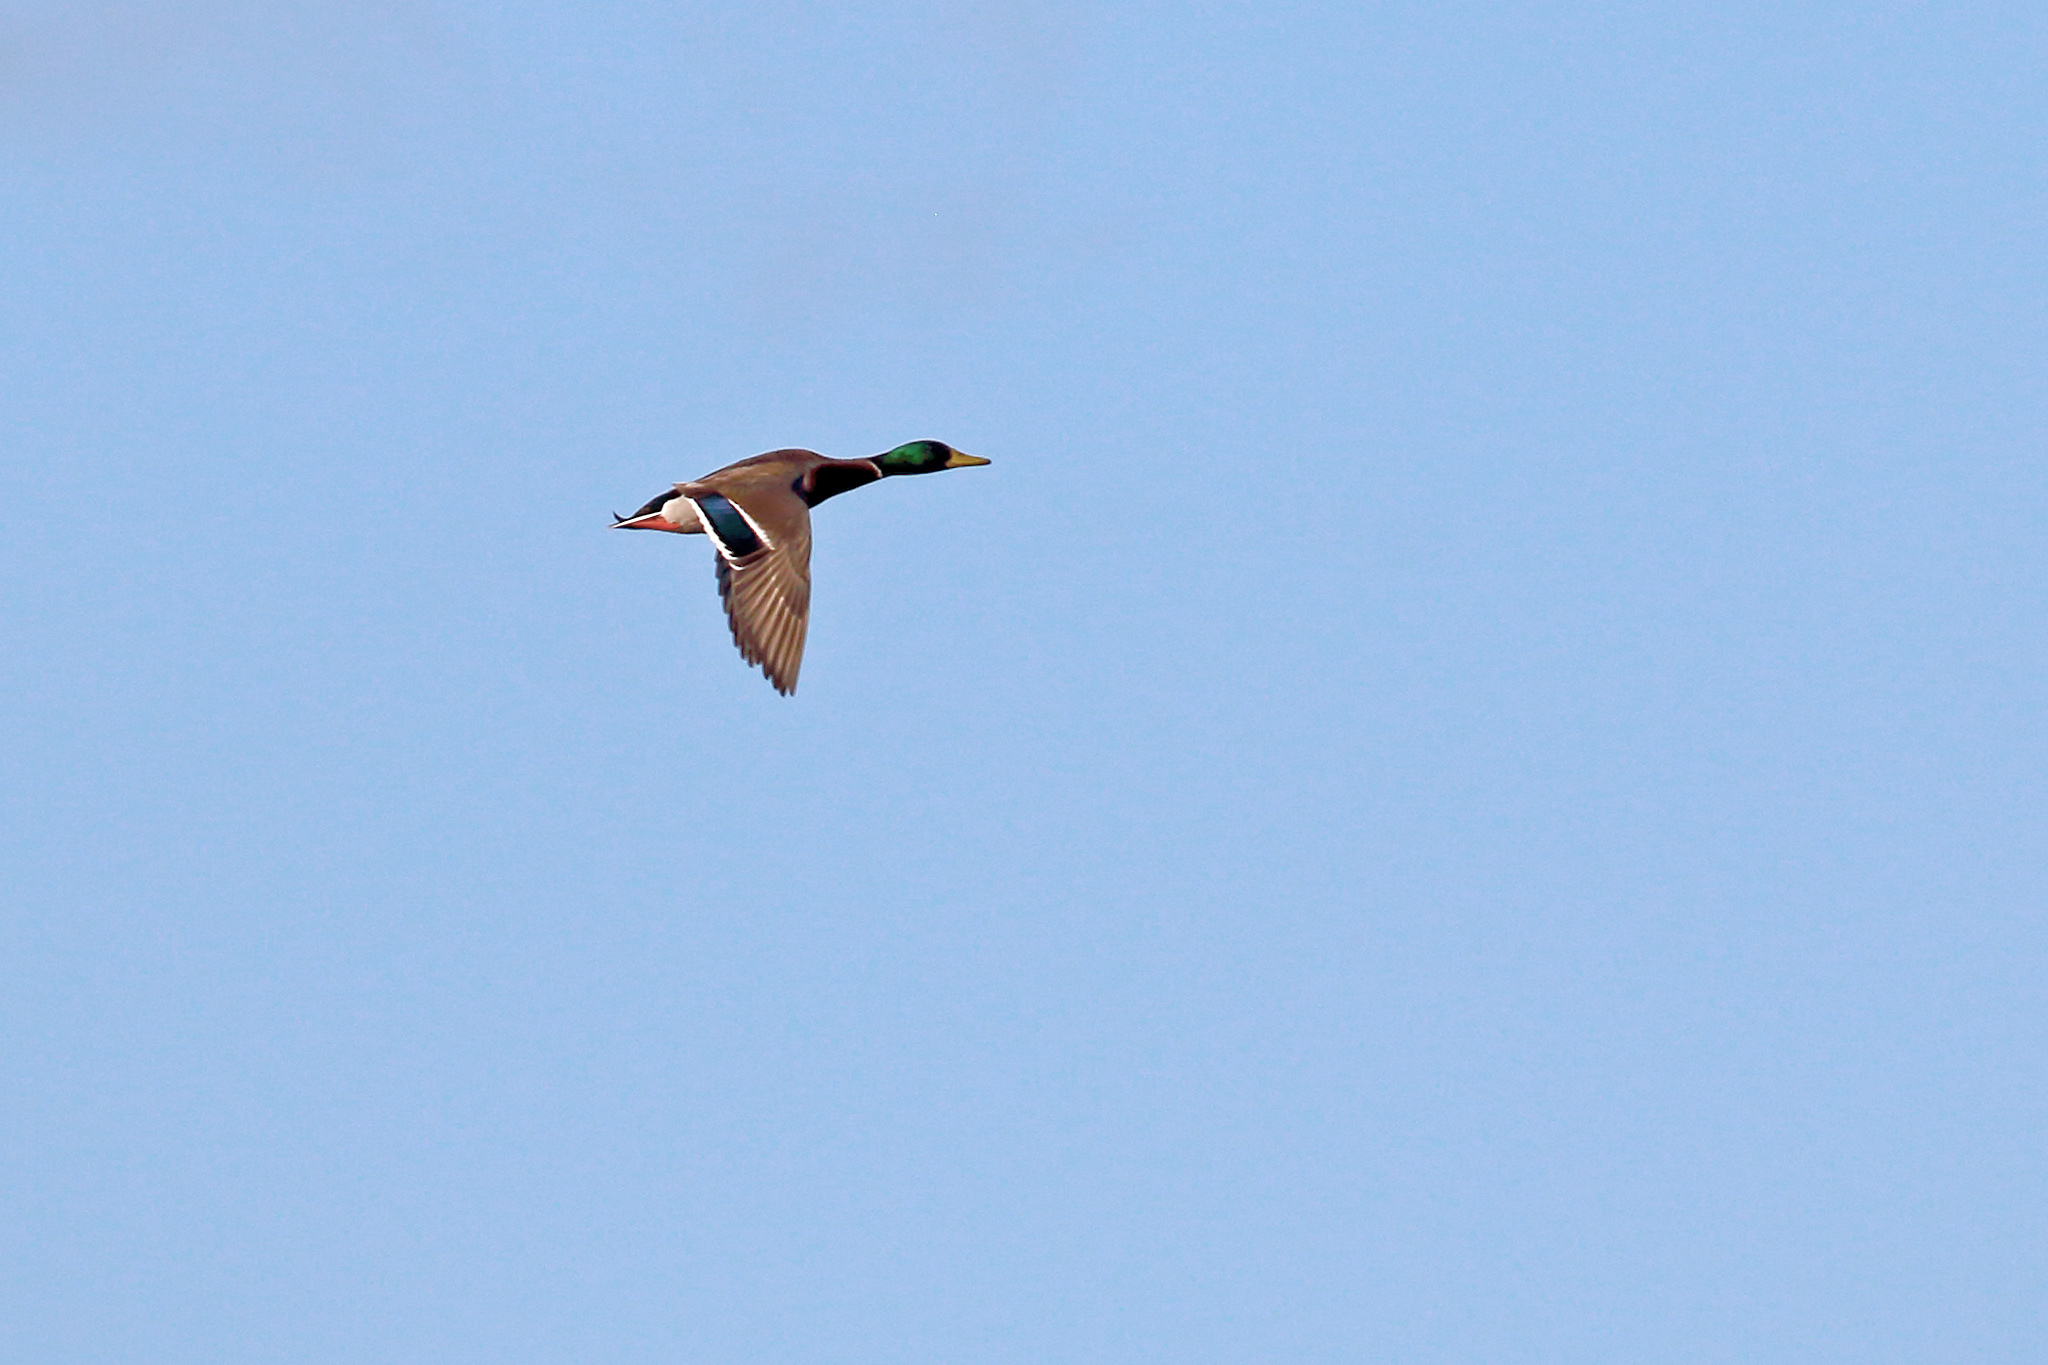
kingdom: Animalia
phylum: Chordata
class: Aves
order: Anseriformes
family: Anatidae
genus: Anas
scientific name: Anas platyrhynchos
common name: Mallard
